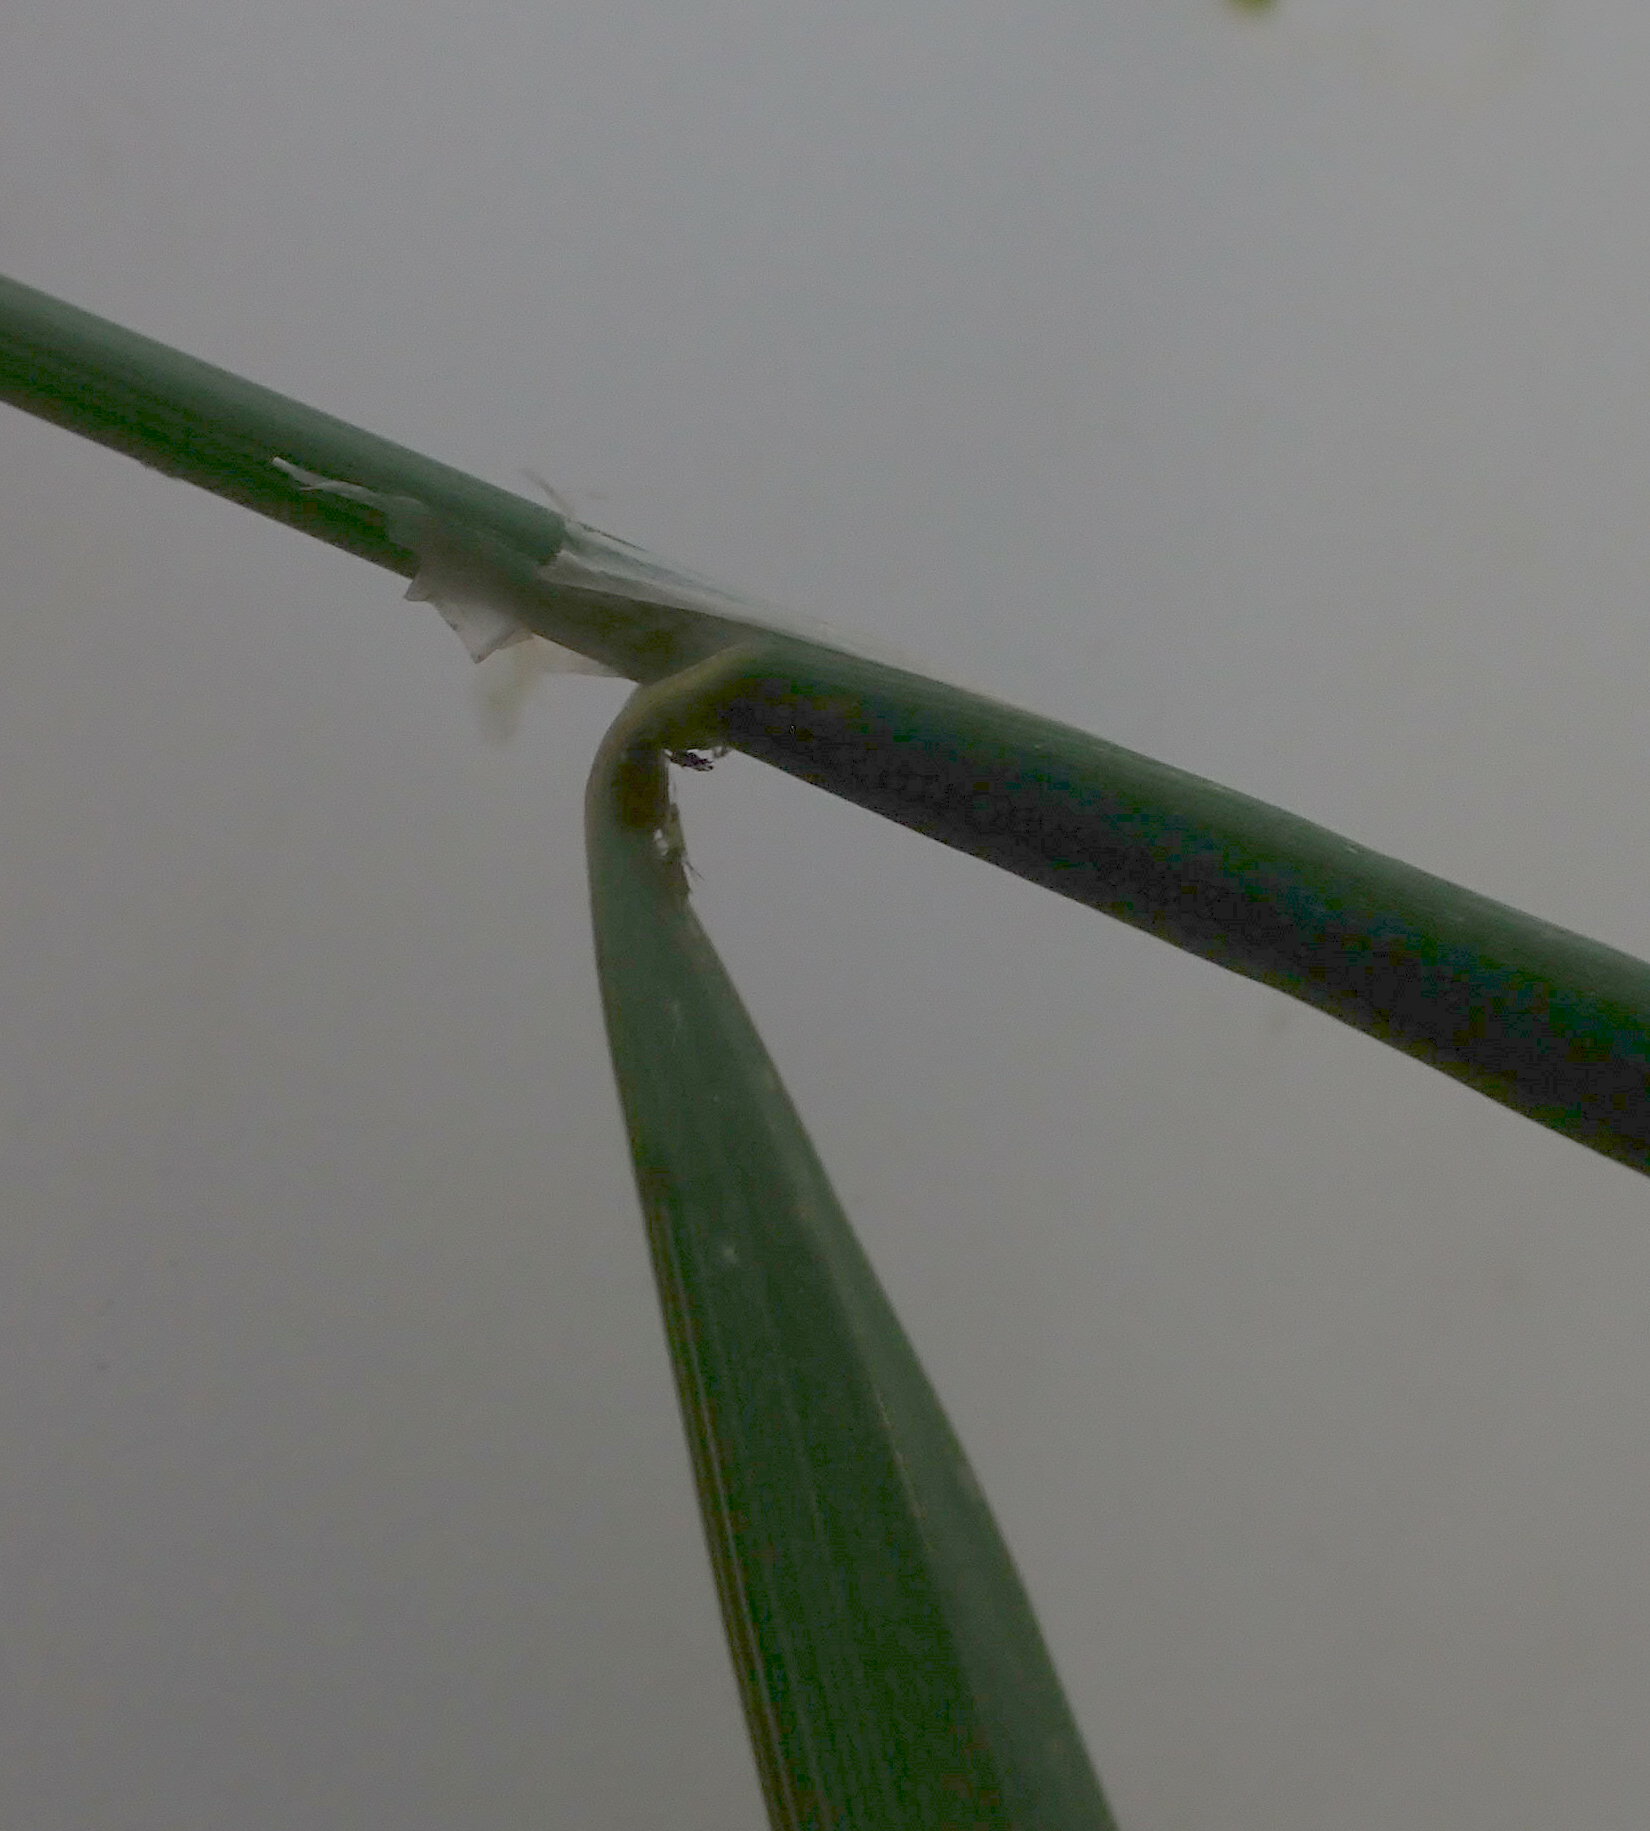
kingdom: Plantae
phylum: Tracheophyta
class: Liliopsida
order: Poales
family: Poaceae
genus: Dactylis
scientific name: Dactylis glomerata
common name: Orchardgrass
